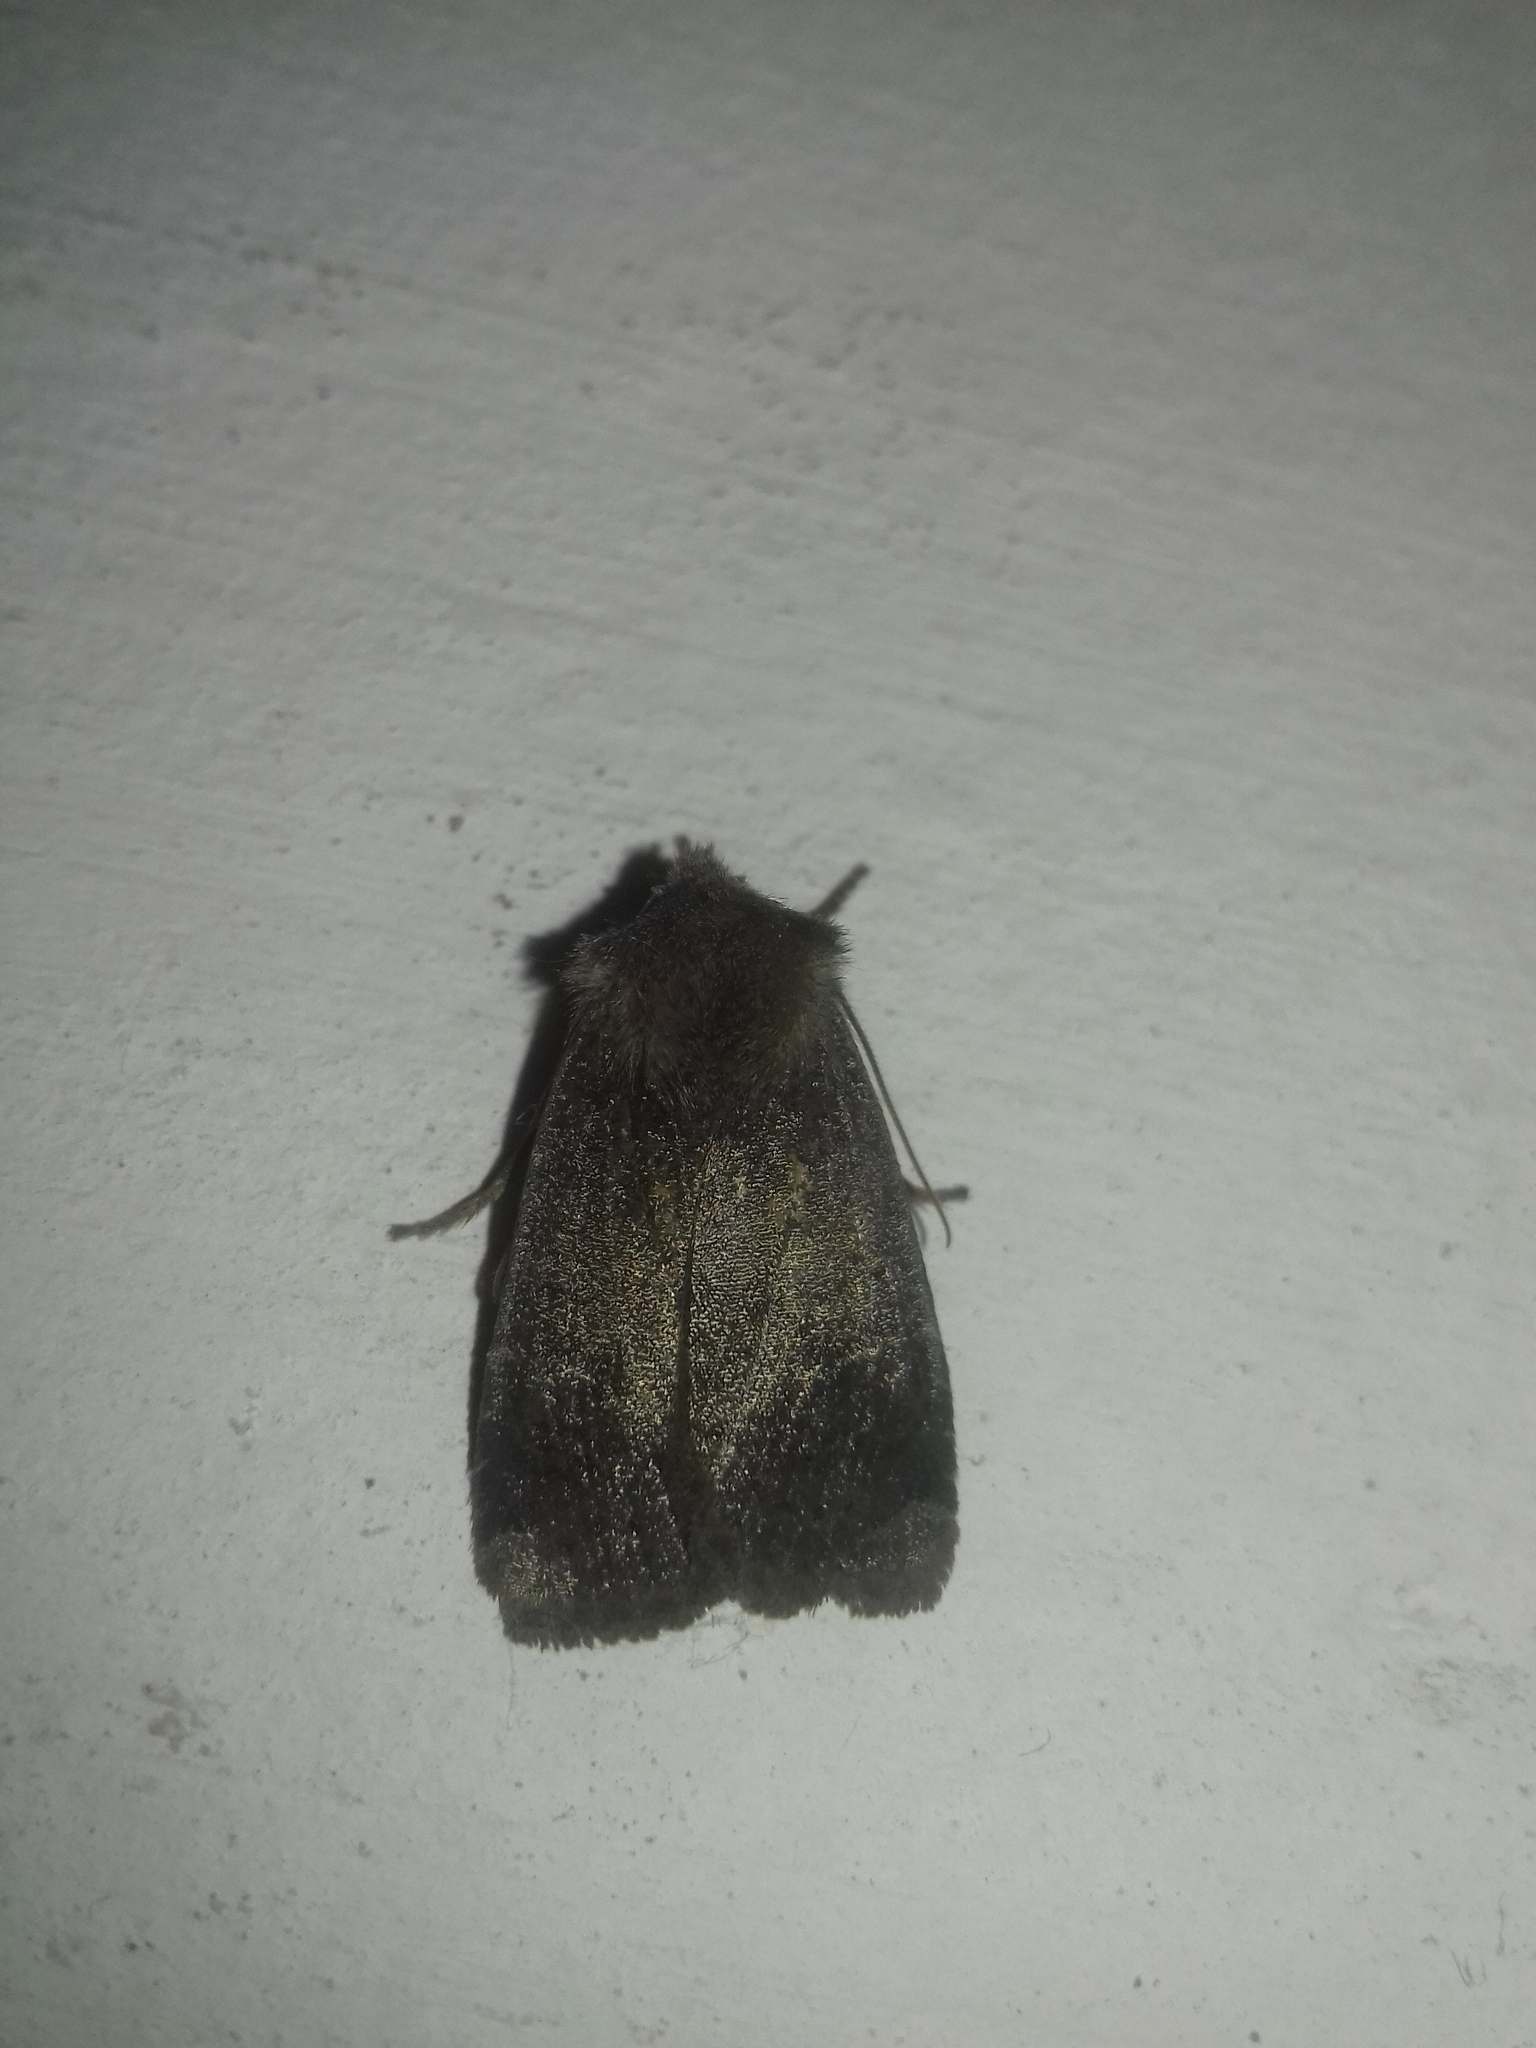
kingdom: Animalia
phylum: Arthropoda
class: Insecta
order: Lepidoptera
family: Noctuidae
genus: Conistra
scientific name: Conistra vaccinii
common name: Chestnut
